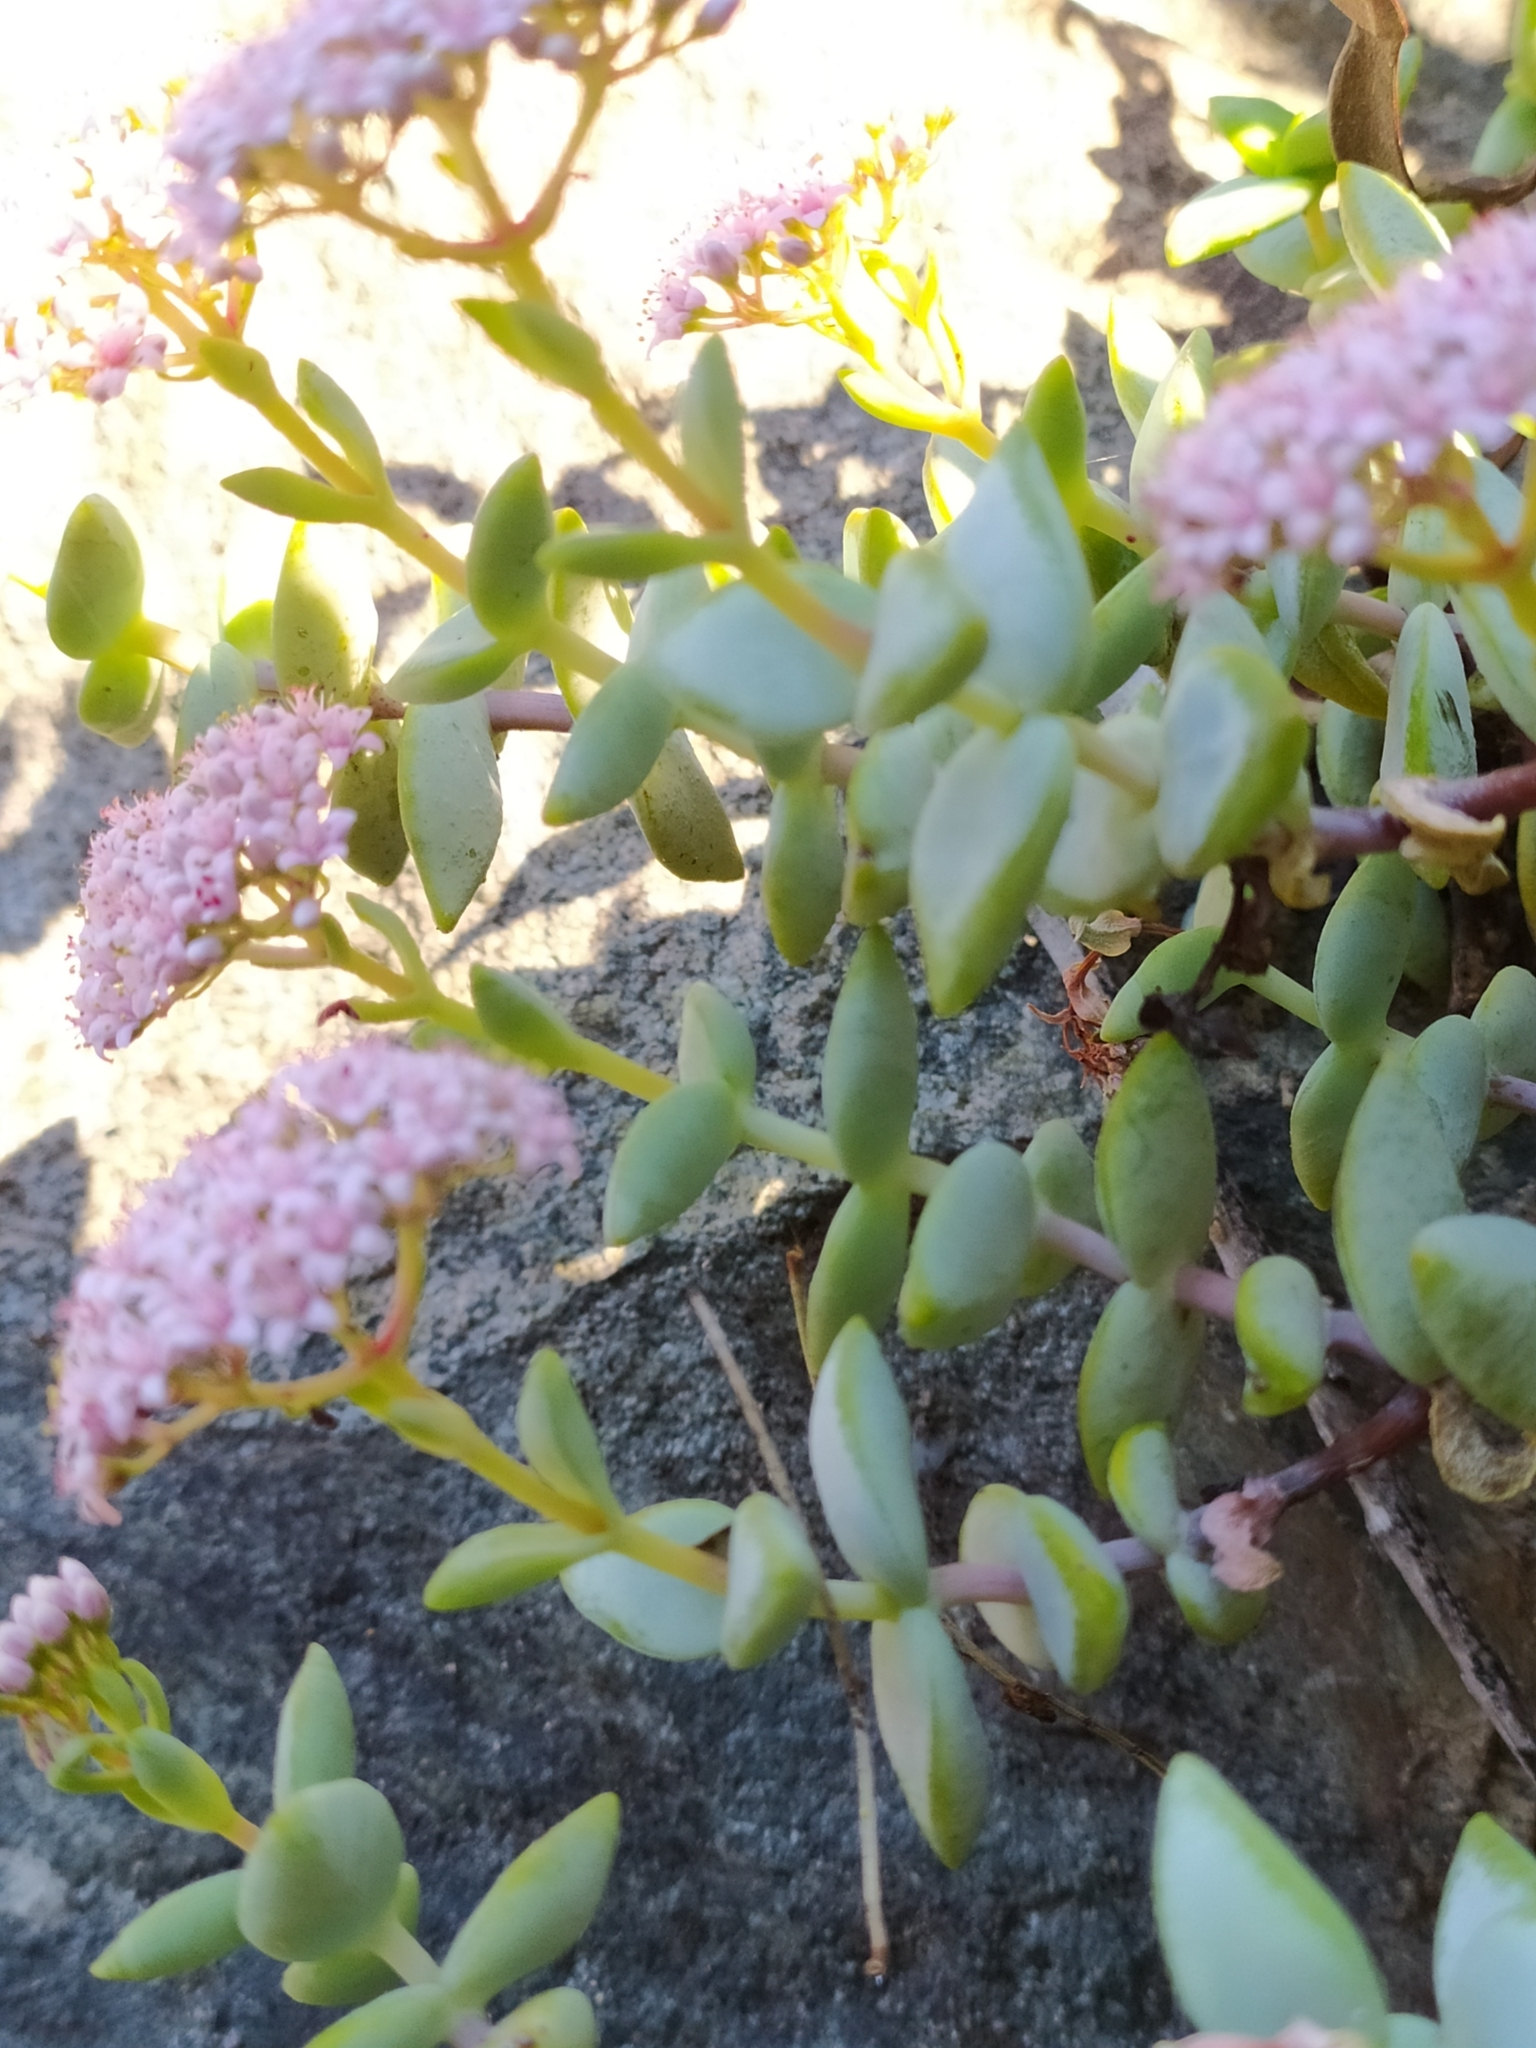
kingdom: Plantae
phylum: Tracheophyta
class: Magnoliopsida
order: Saxifragales
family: Crassulaceae
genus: Crassula
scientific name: Crassula rupestris
